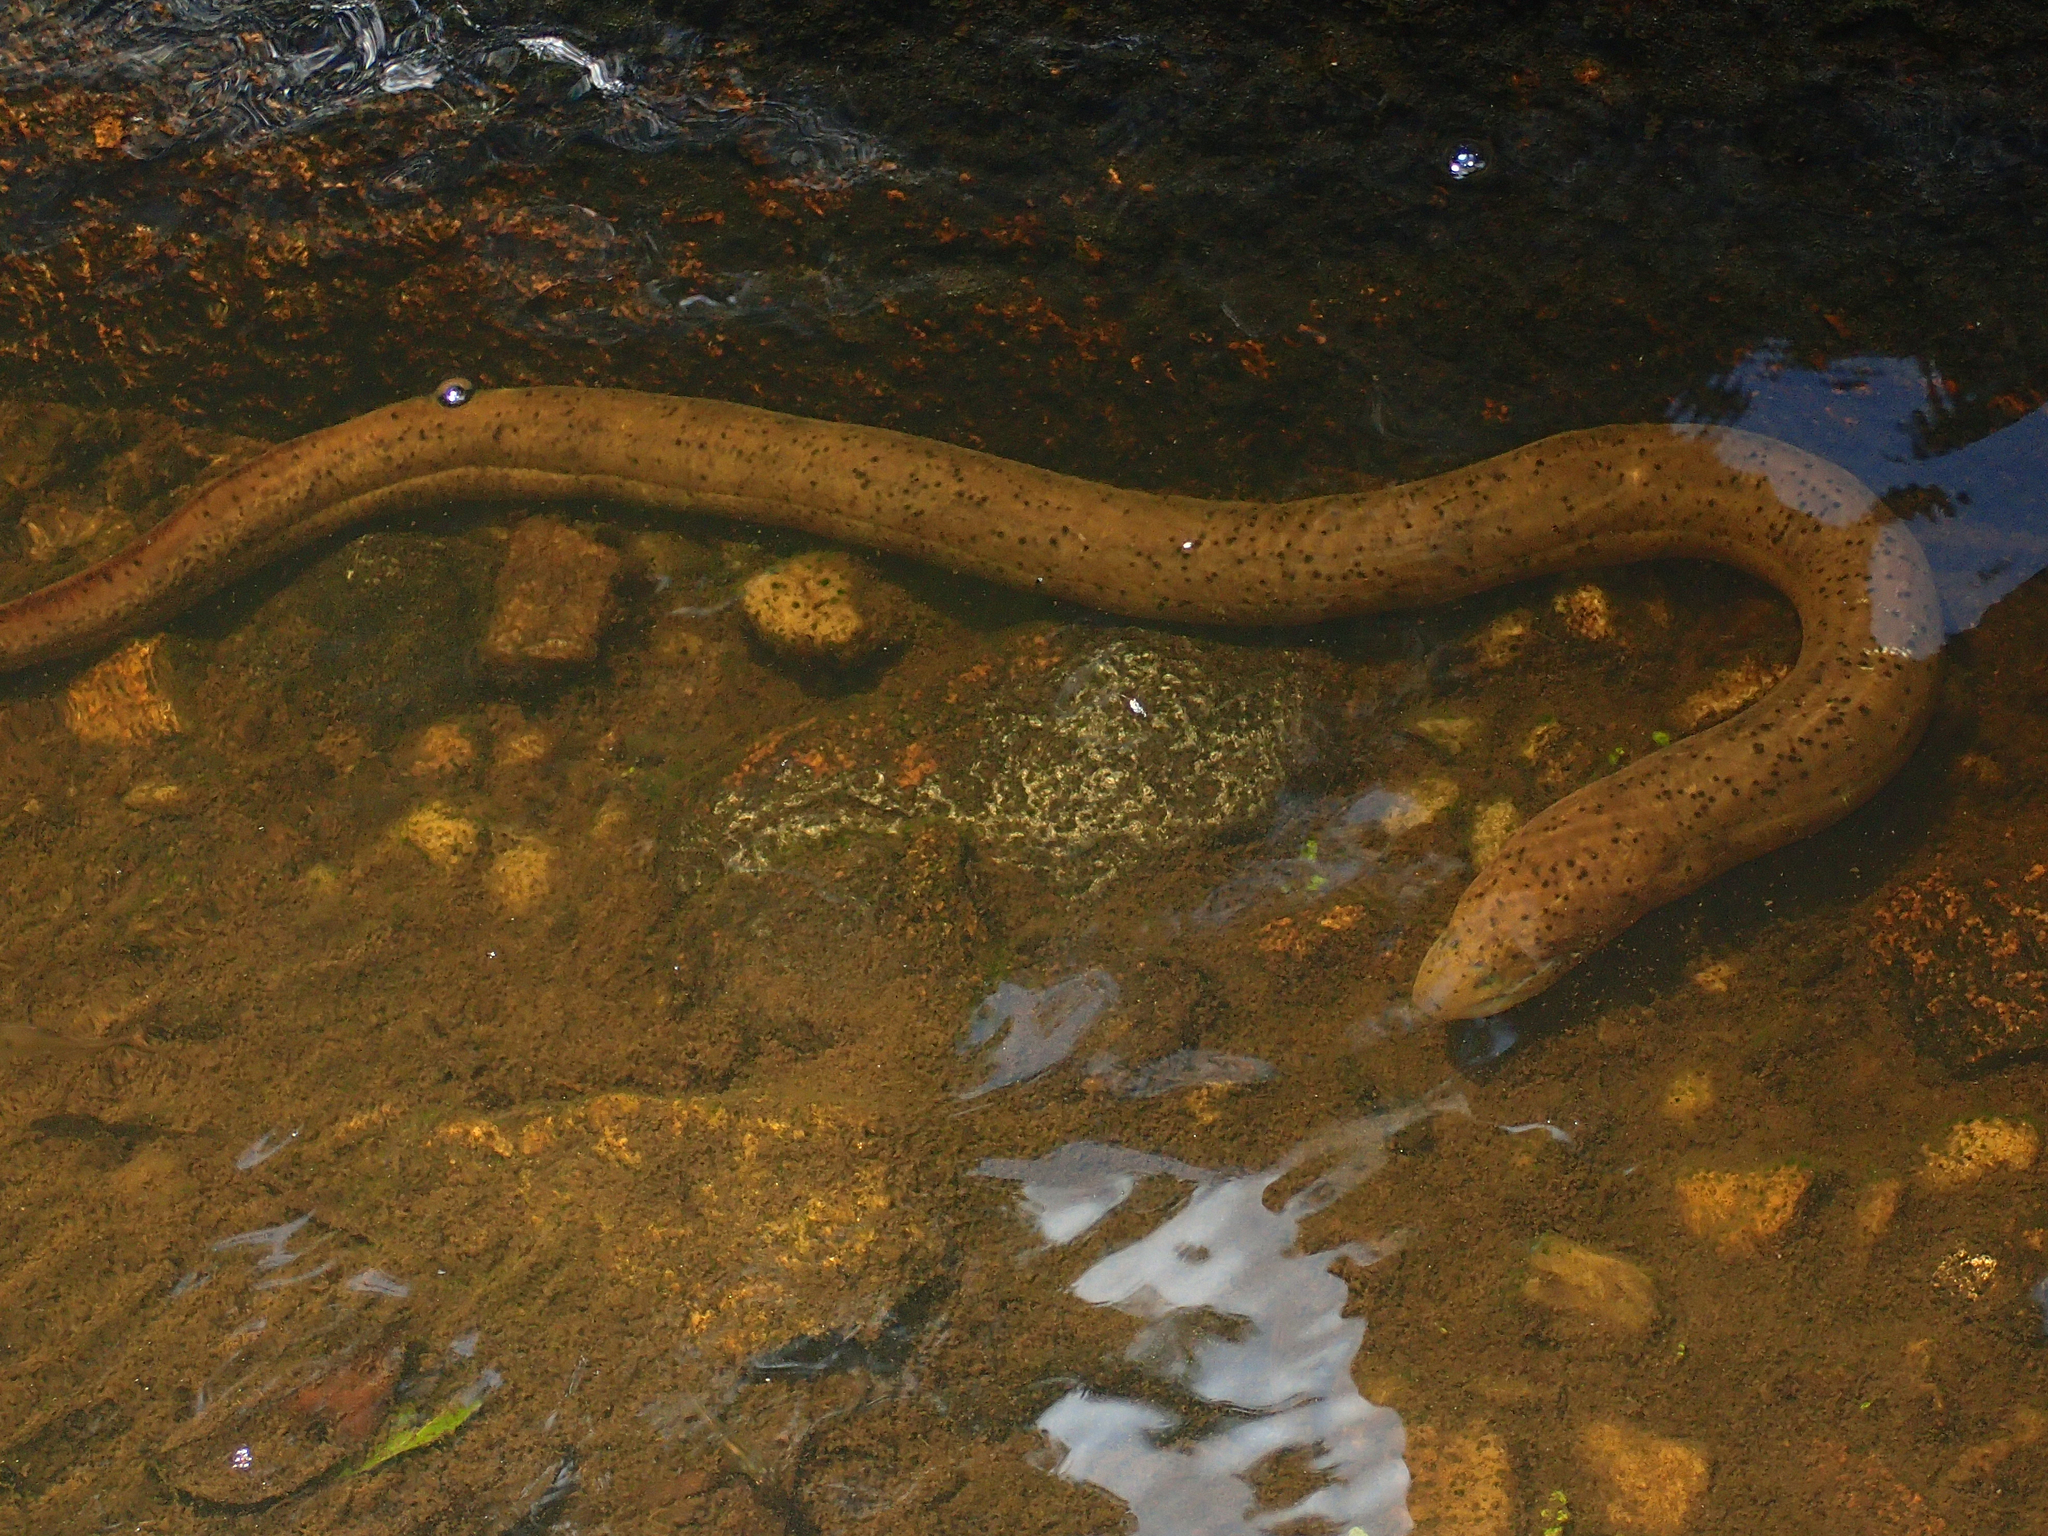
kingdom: Animalia
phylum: Chordata
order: Synbranchiformes
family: Synbranchidae
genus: Synbranchus
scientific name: Synbranchus marmoratus
